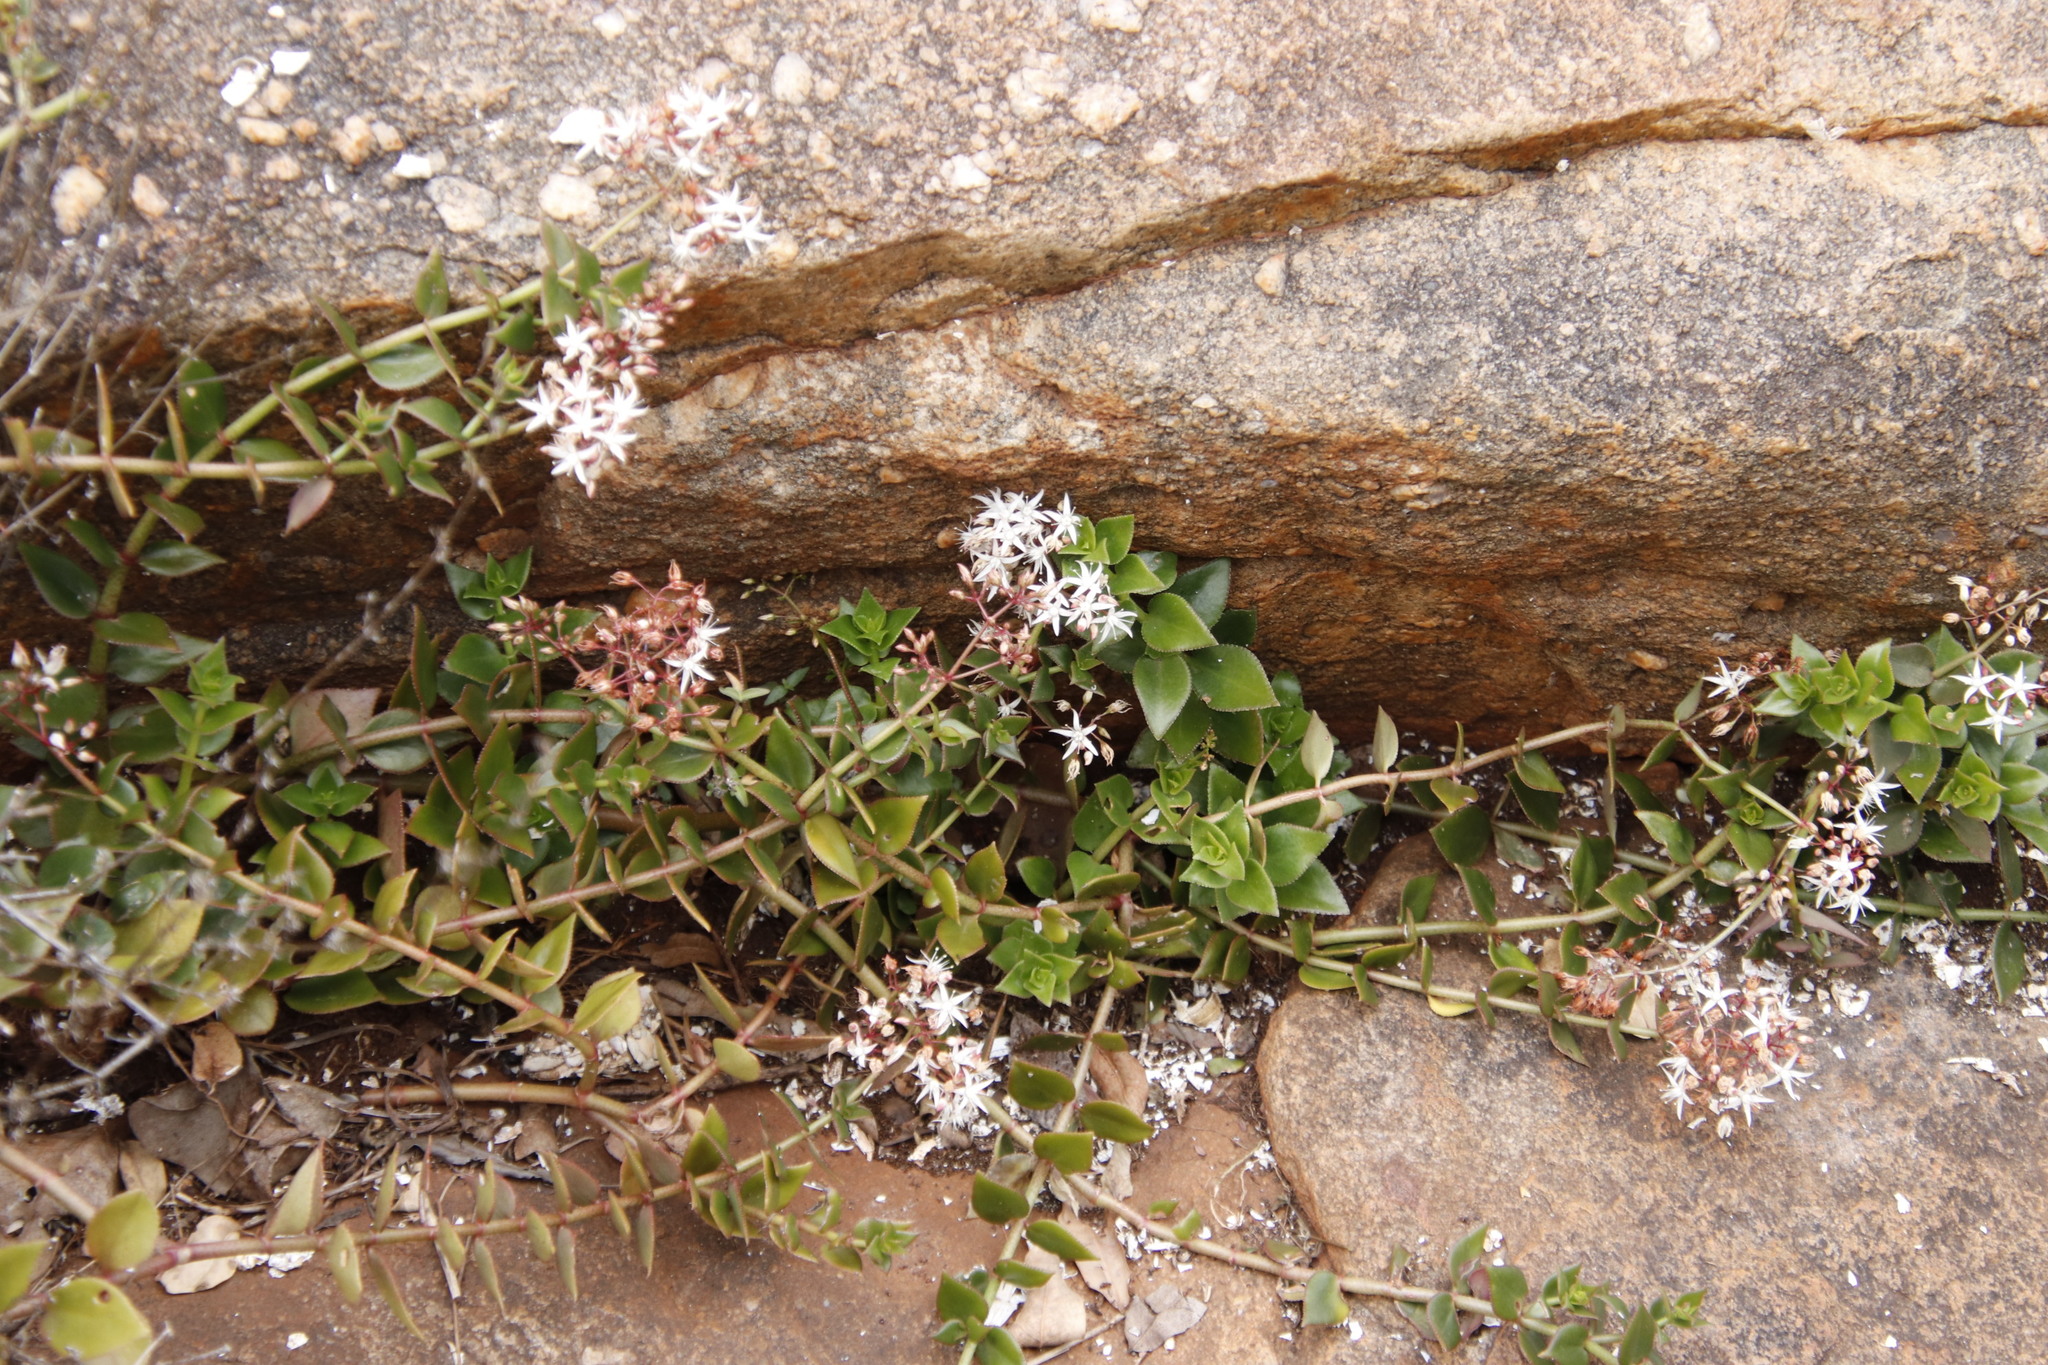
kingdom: Plantae
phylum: Tracheophyta
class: Magnoliopsida
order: Saxifragales
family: Crassulaceae
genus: Crassula
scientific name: Crassula sarmentosa
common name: Jade-tree
